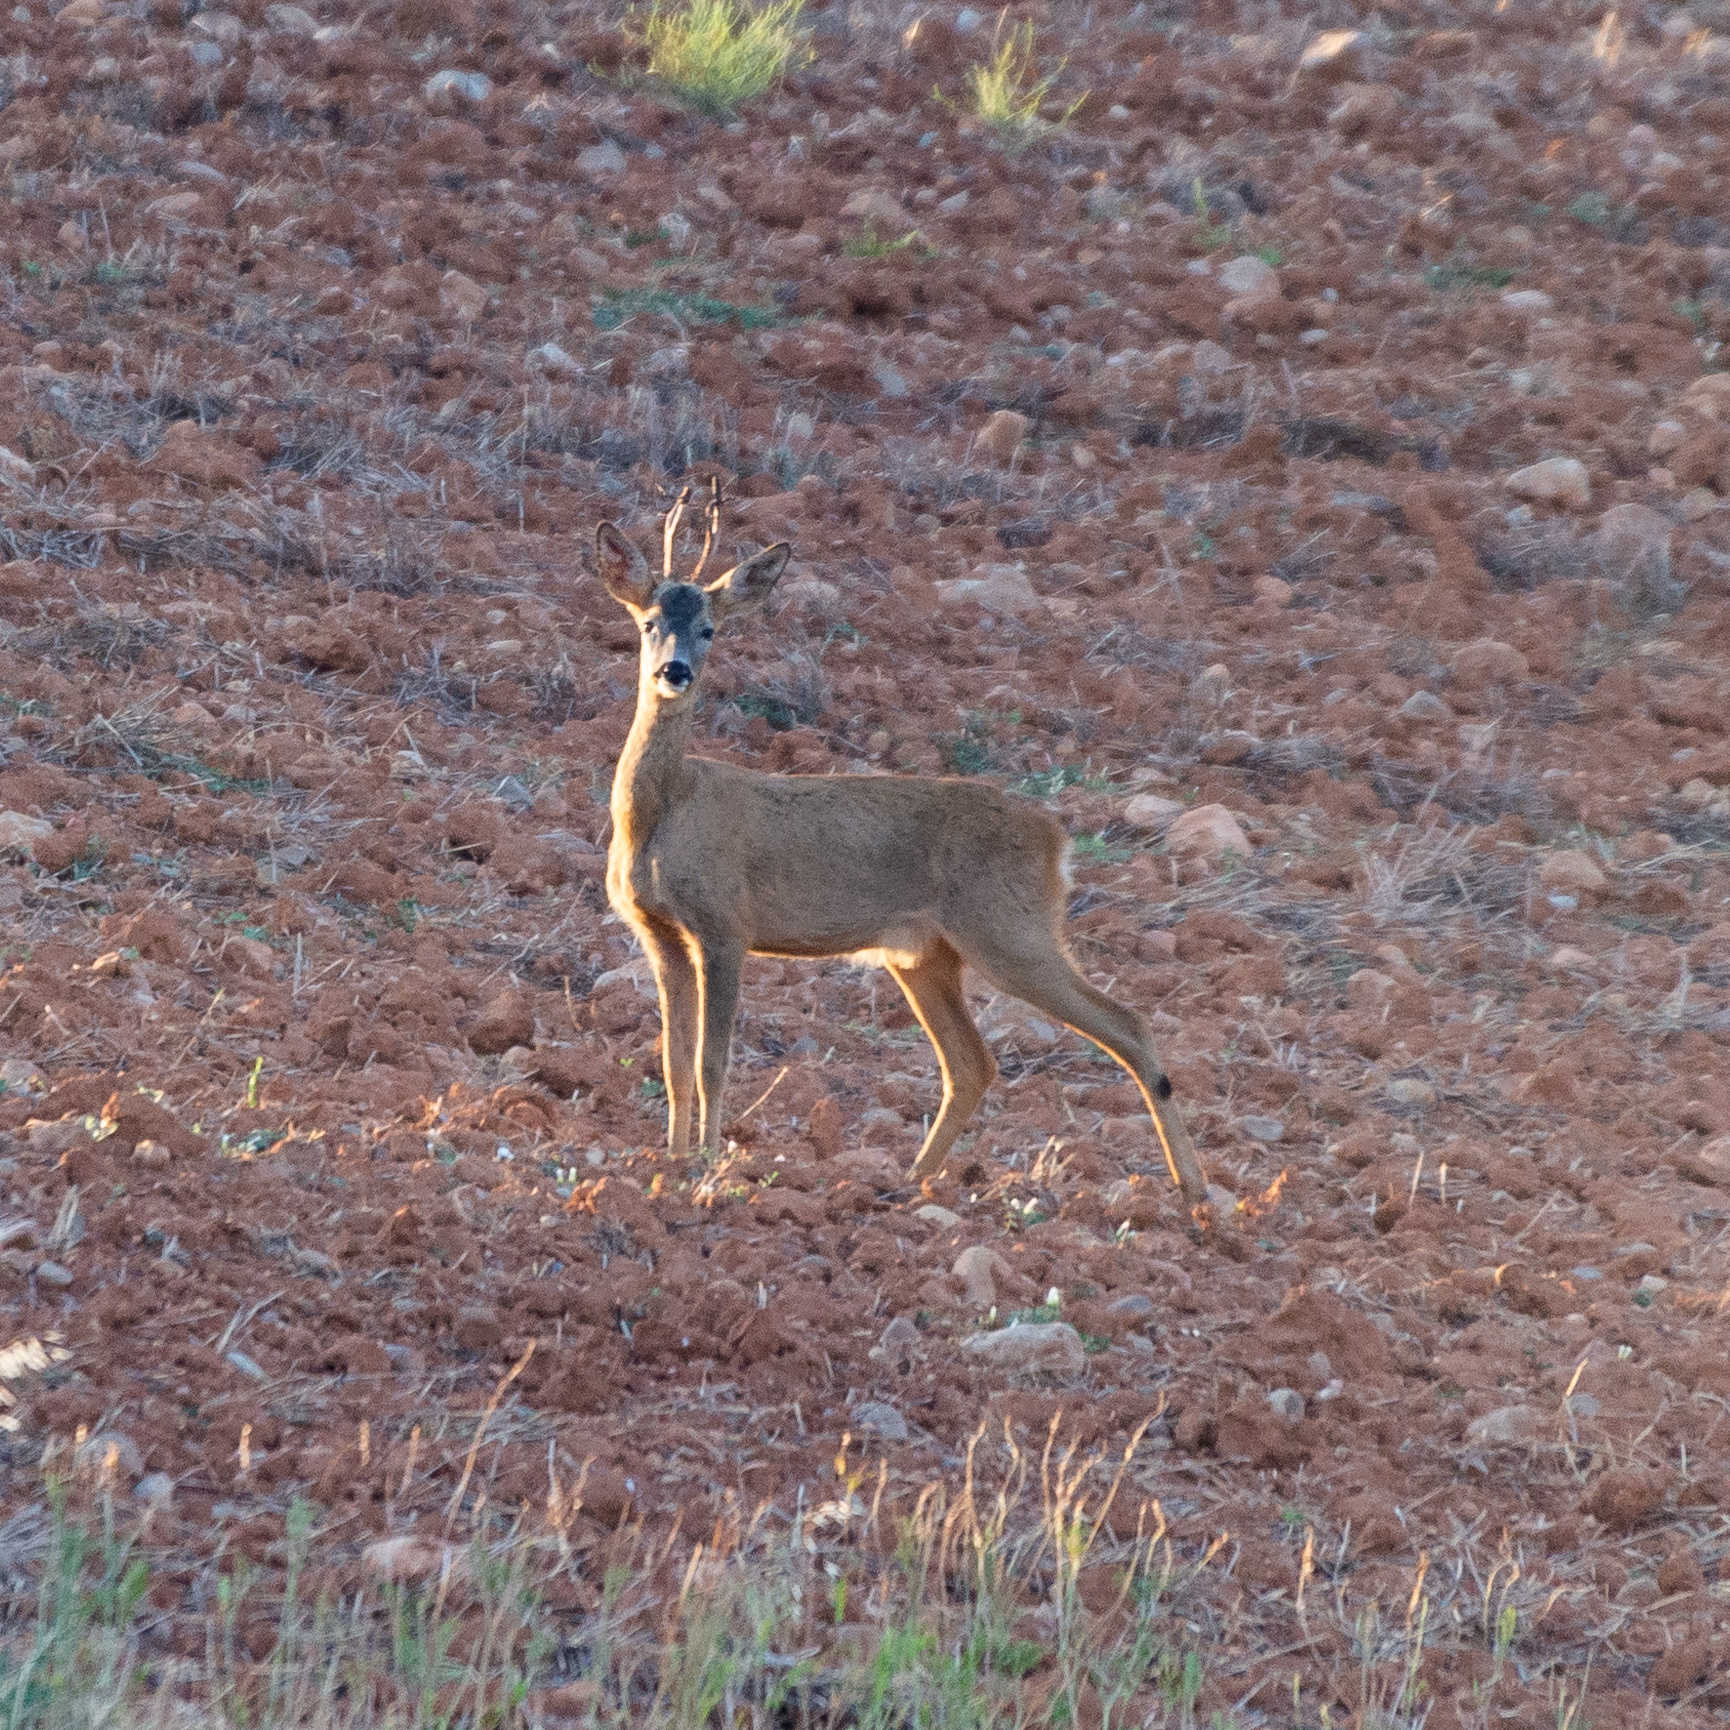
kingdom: Animalia
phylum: Chordata
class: Mammalia
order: Artiodactyla
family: Cervidae
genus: Capreolus
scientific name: Capreolus capreolus
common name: Western roe deer
